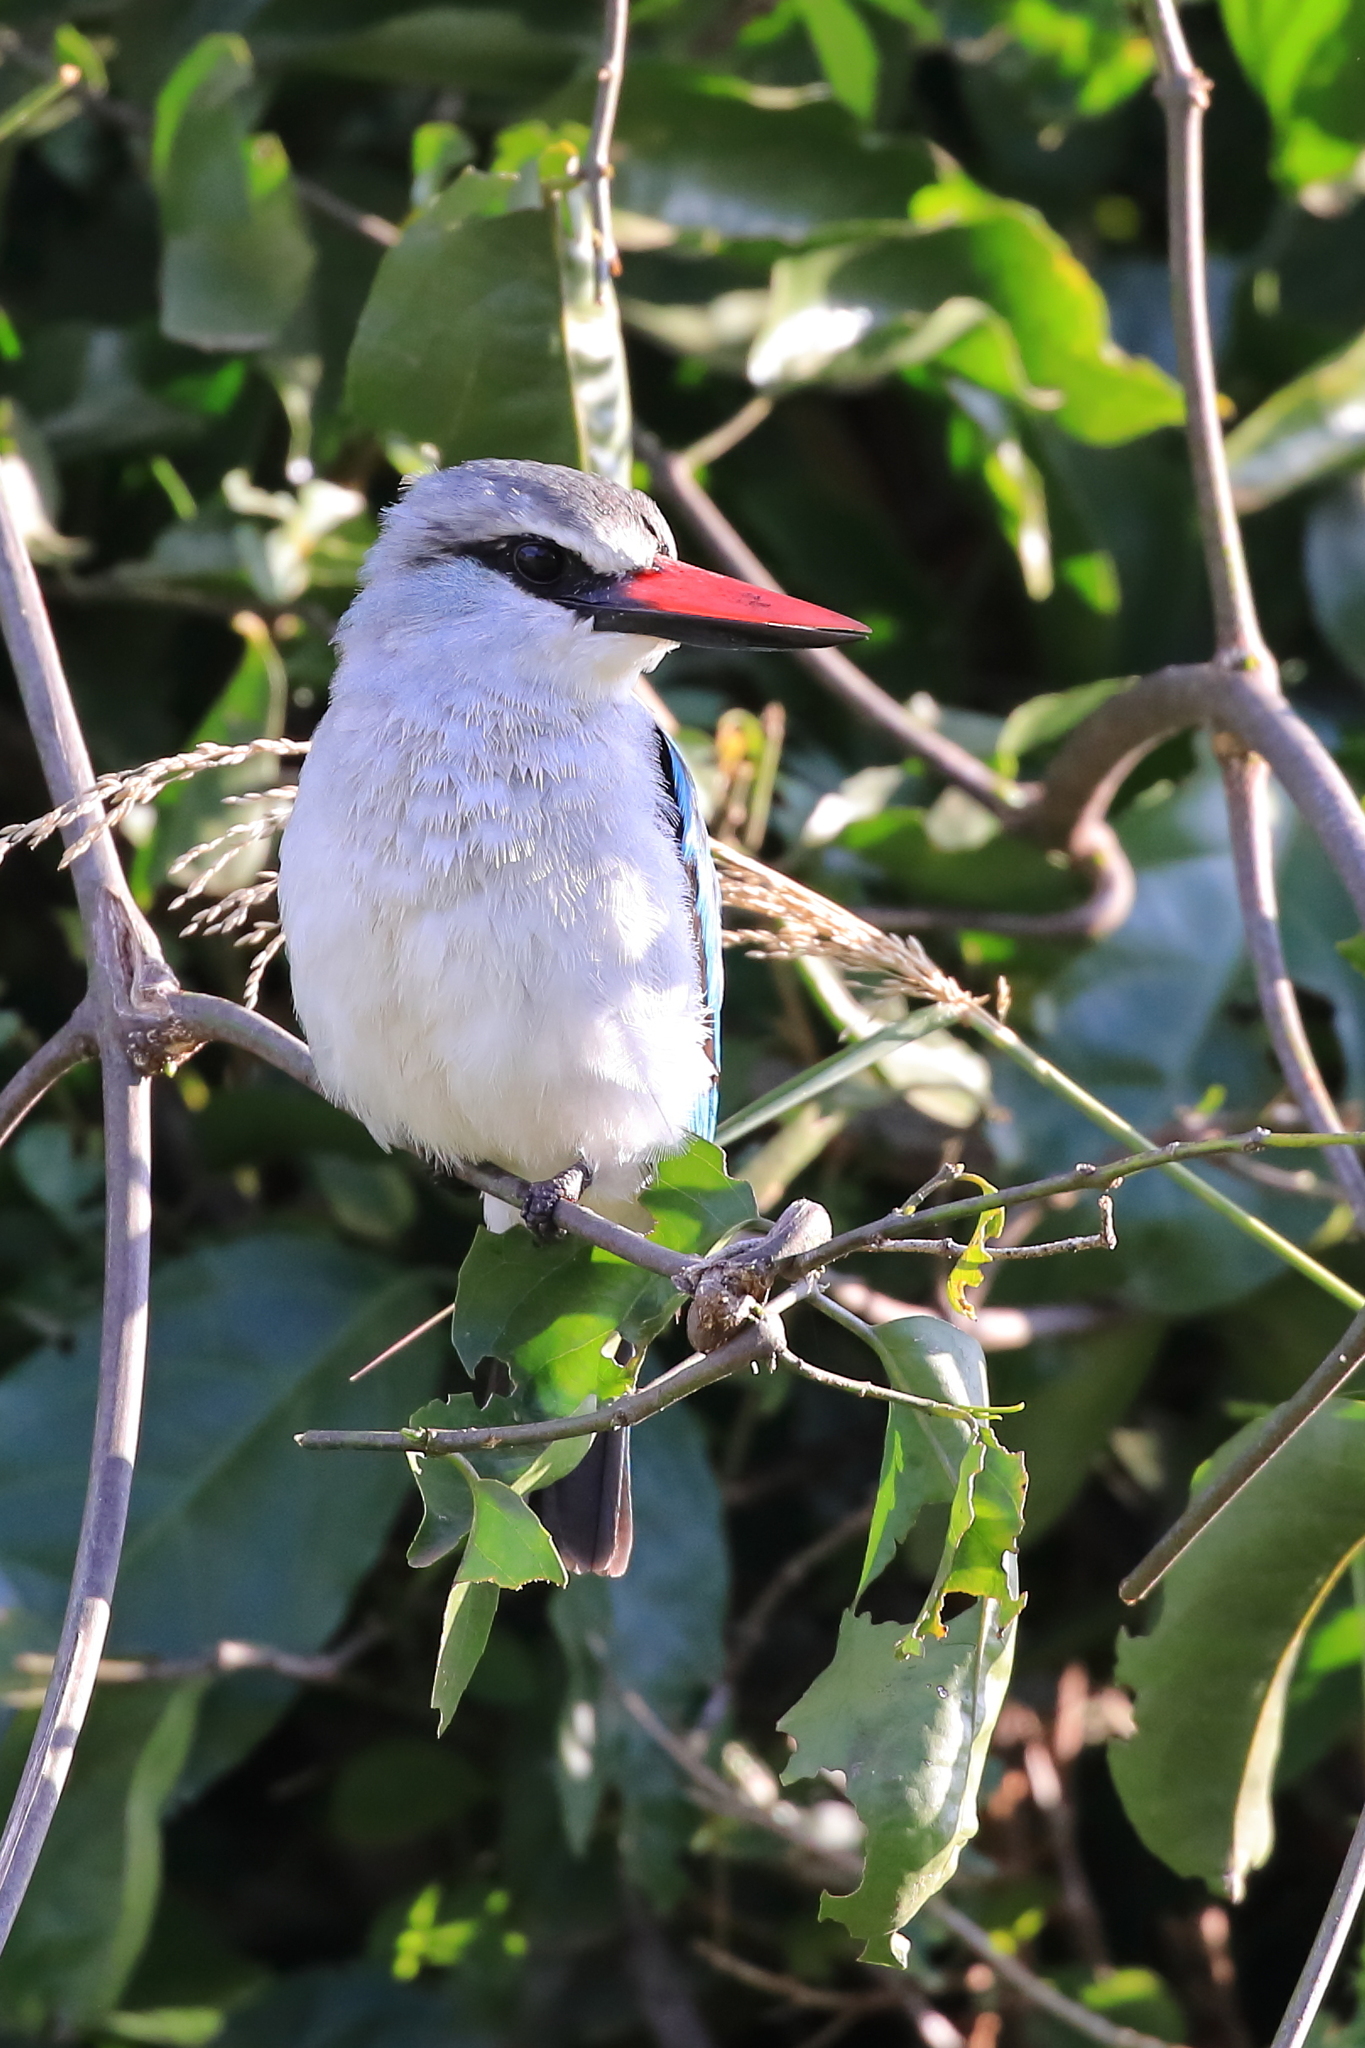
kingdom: Animalia
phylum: Chordata
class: Aves
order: Coraciiformes
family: Alcedinidae
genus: Halcyon
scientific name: Halcyon senegalensis
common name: Woodland kingfisher
